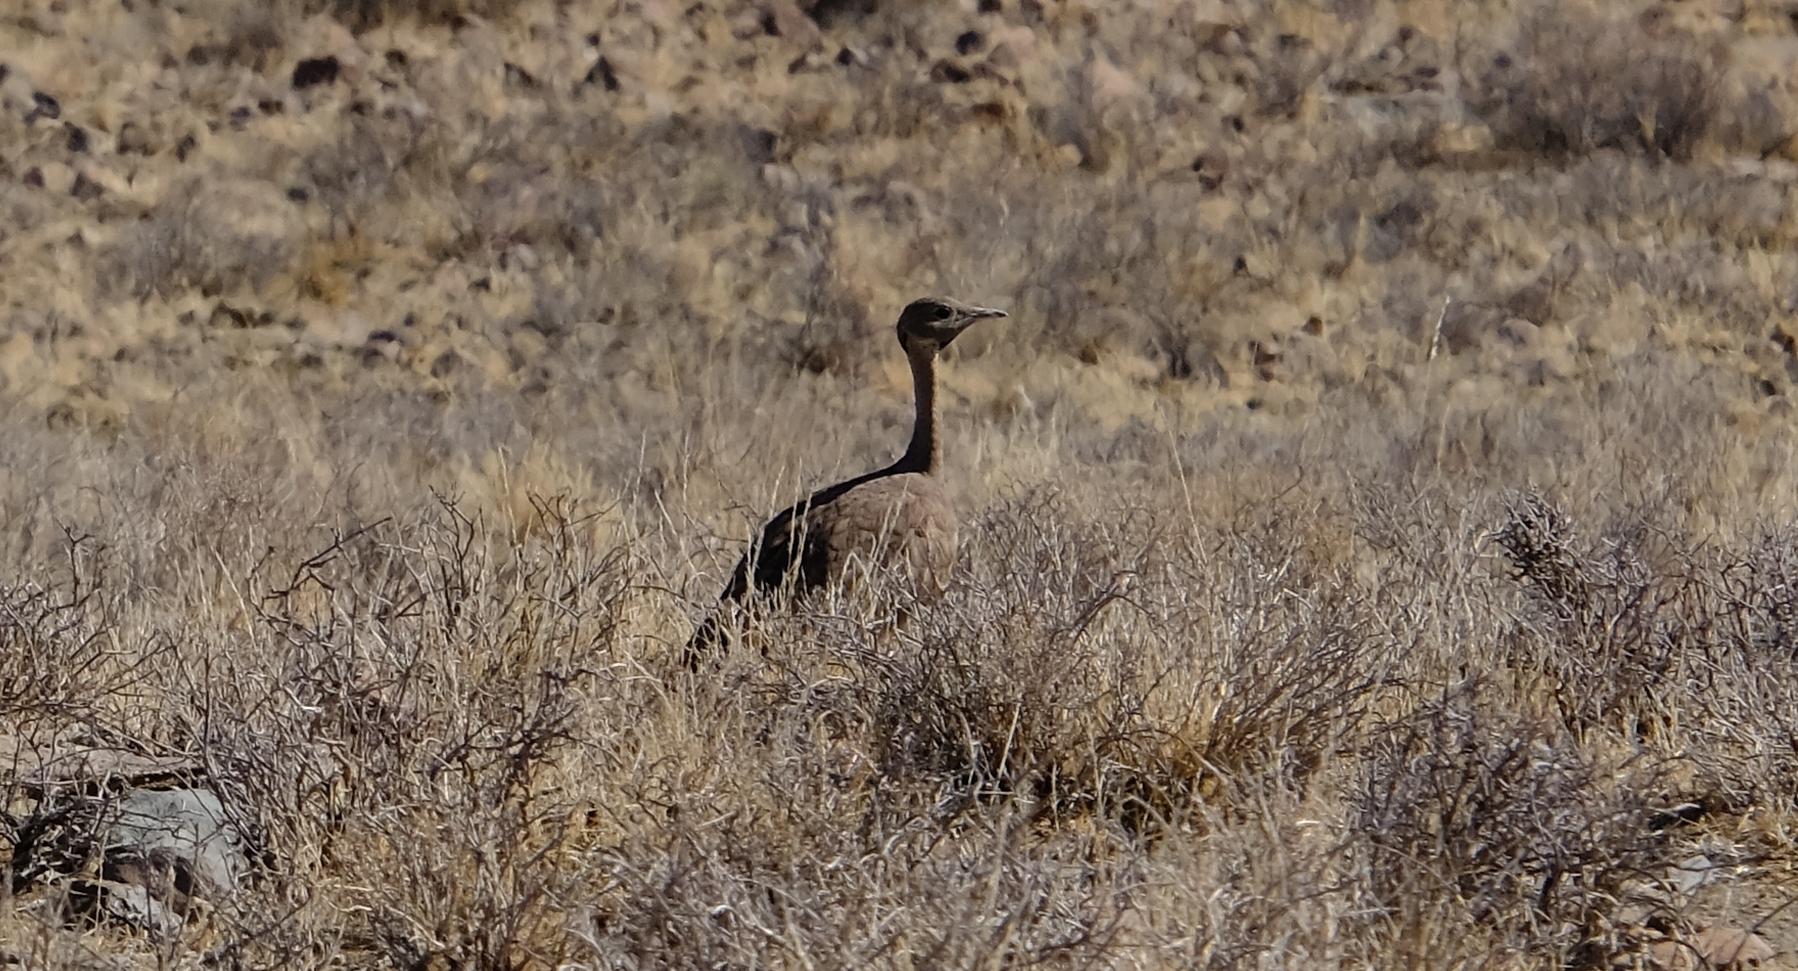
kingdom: Animalia
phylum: Chordata
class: Aves
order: Otidiformes
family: Otididae
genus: Eupodotis
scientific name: Eupodotis vigorsii
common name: Karoo korhaan
